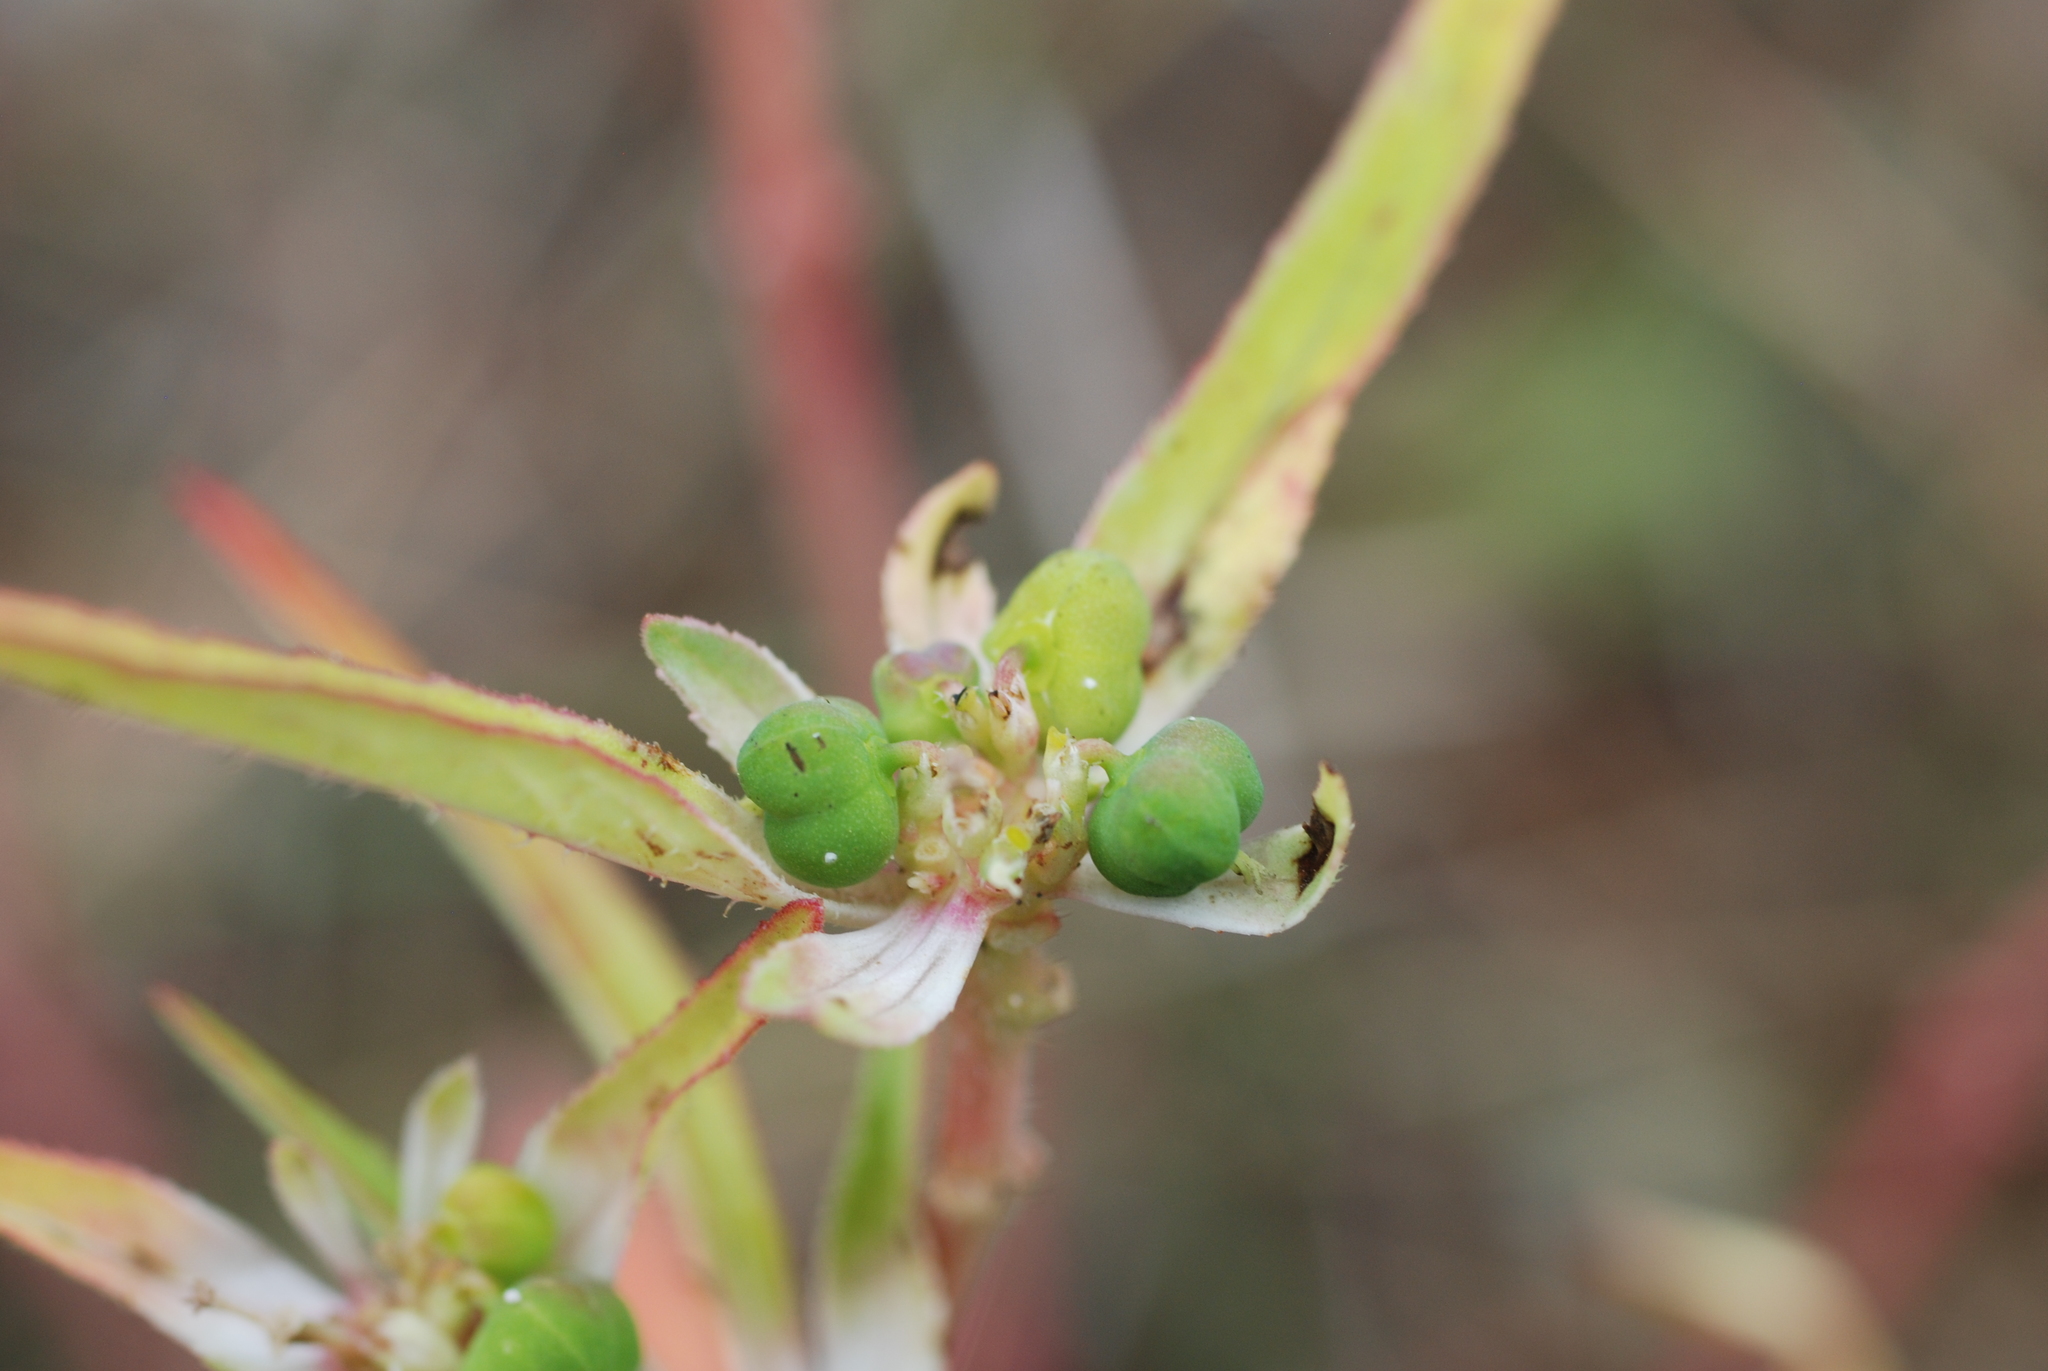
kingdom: Plantae
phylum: Tracheophyta
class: Magnoliopsida
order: Malpighiales
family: Euphorbiaceae
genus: Euphorbia
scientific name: Euphorbia davidii
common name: David's spurge
